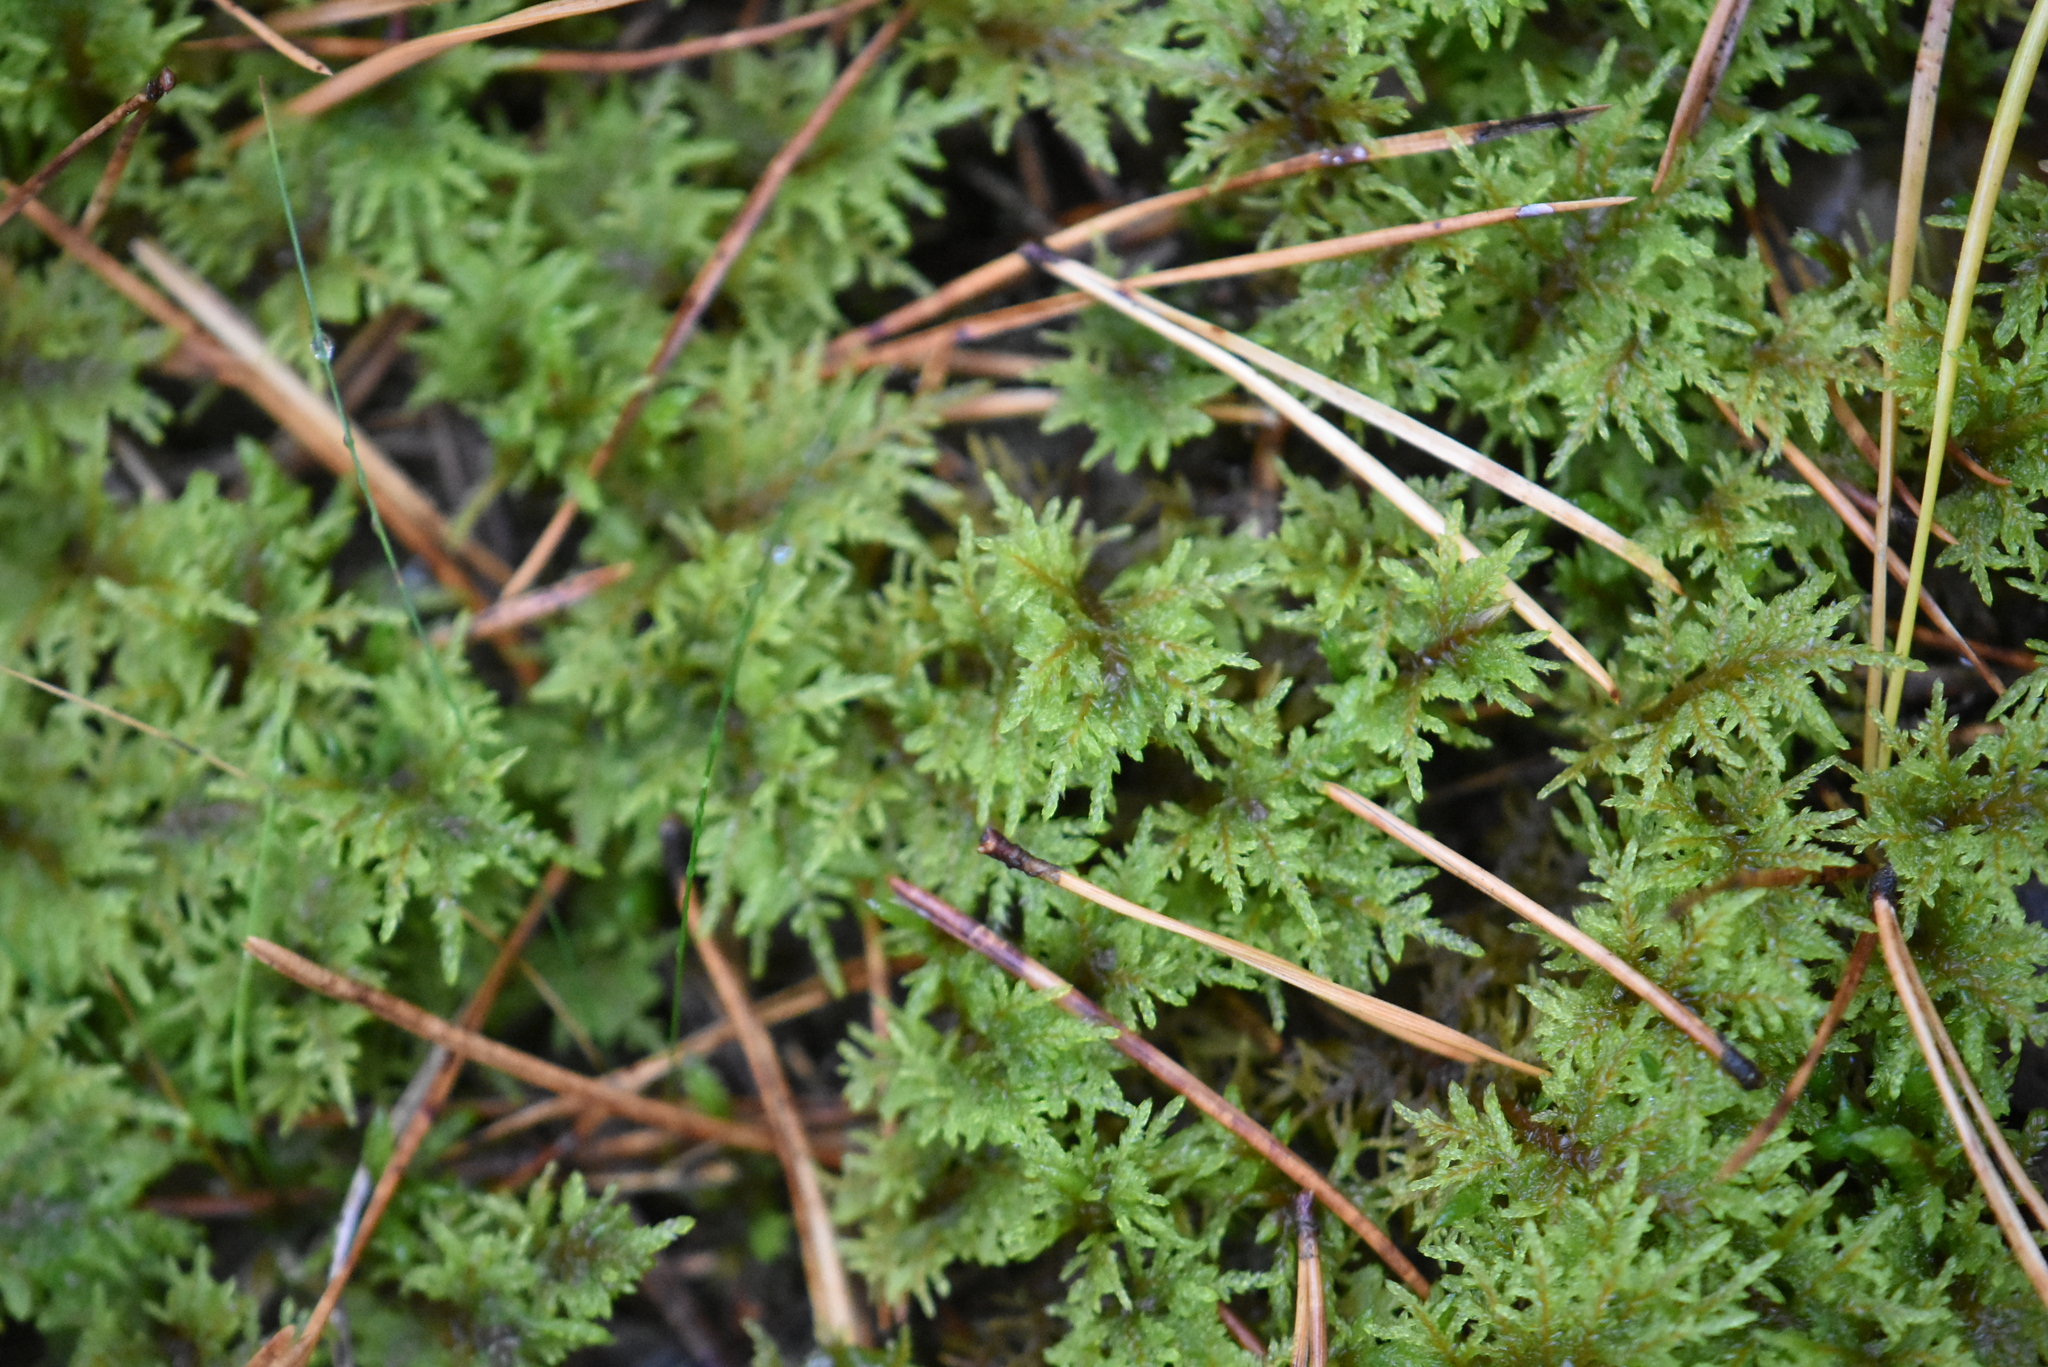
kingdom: Plantae
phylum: Bryophyta
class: Bryopsida
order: Hypnales
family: Hylocomiaceae
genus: Hylocomium
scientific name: Hylocomium splendens
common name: Stairstep moss
